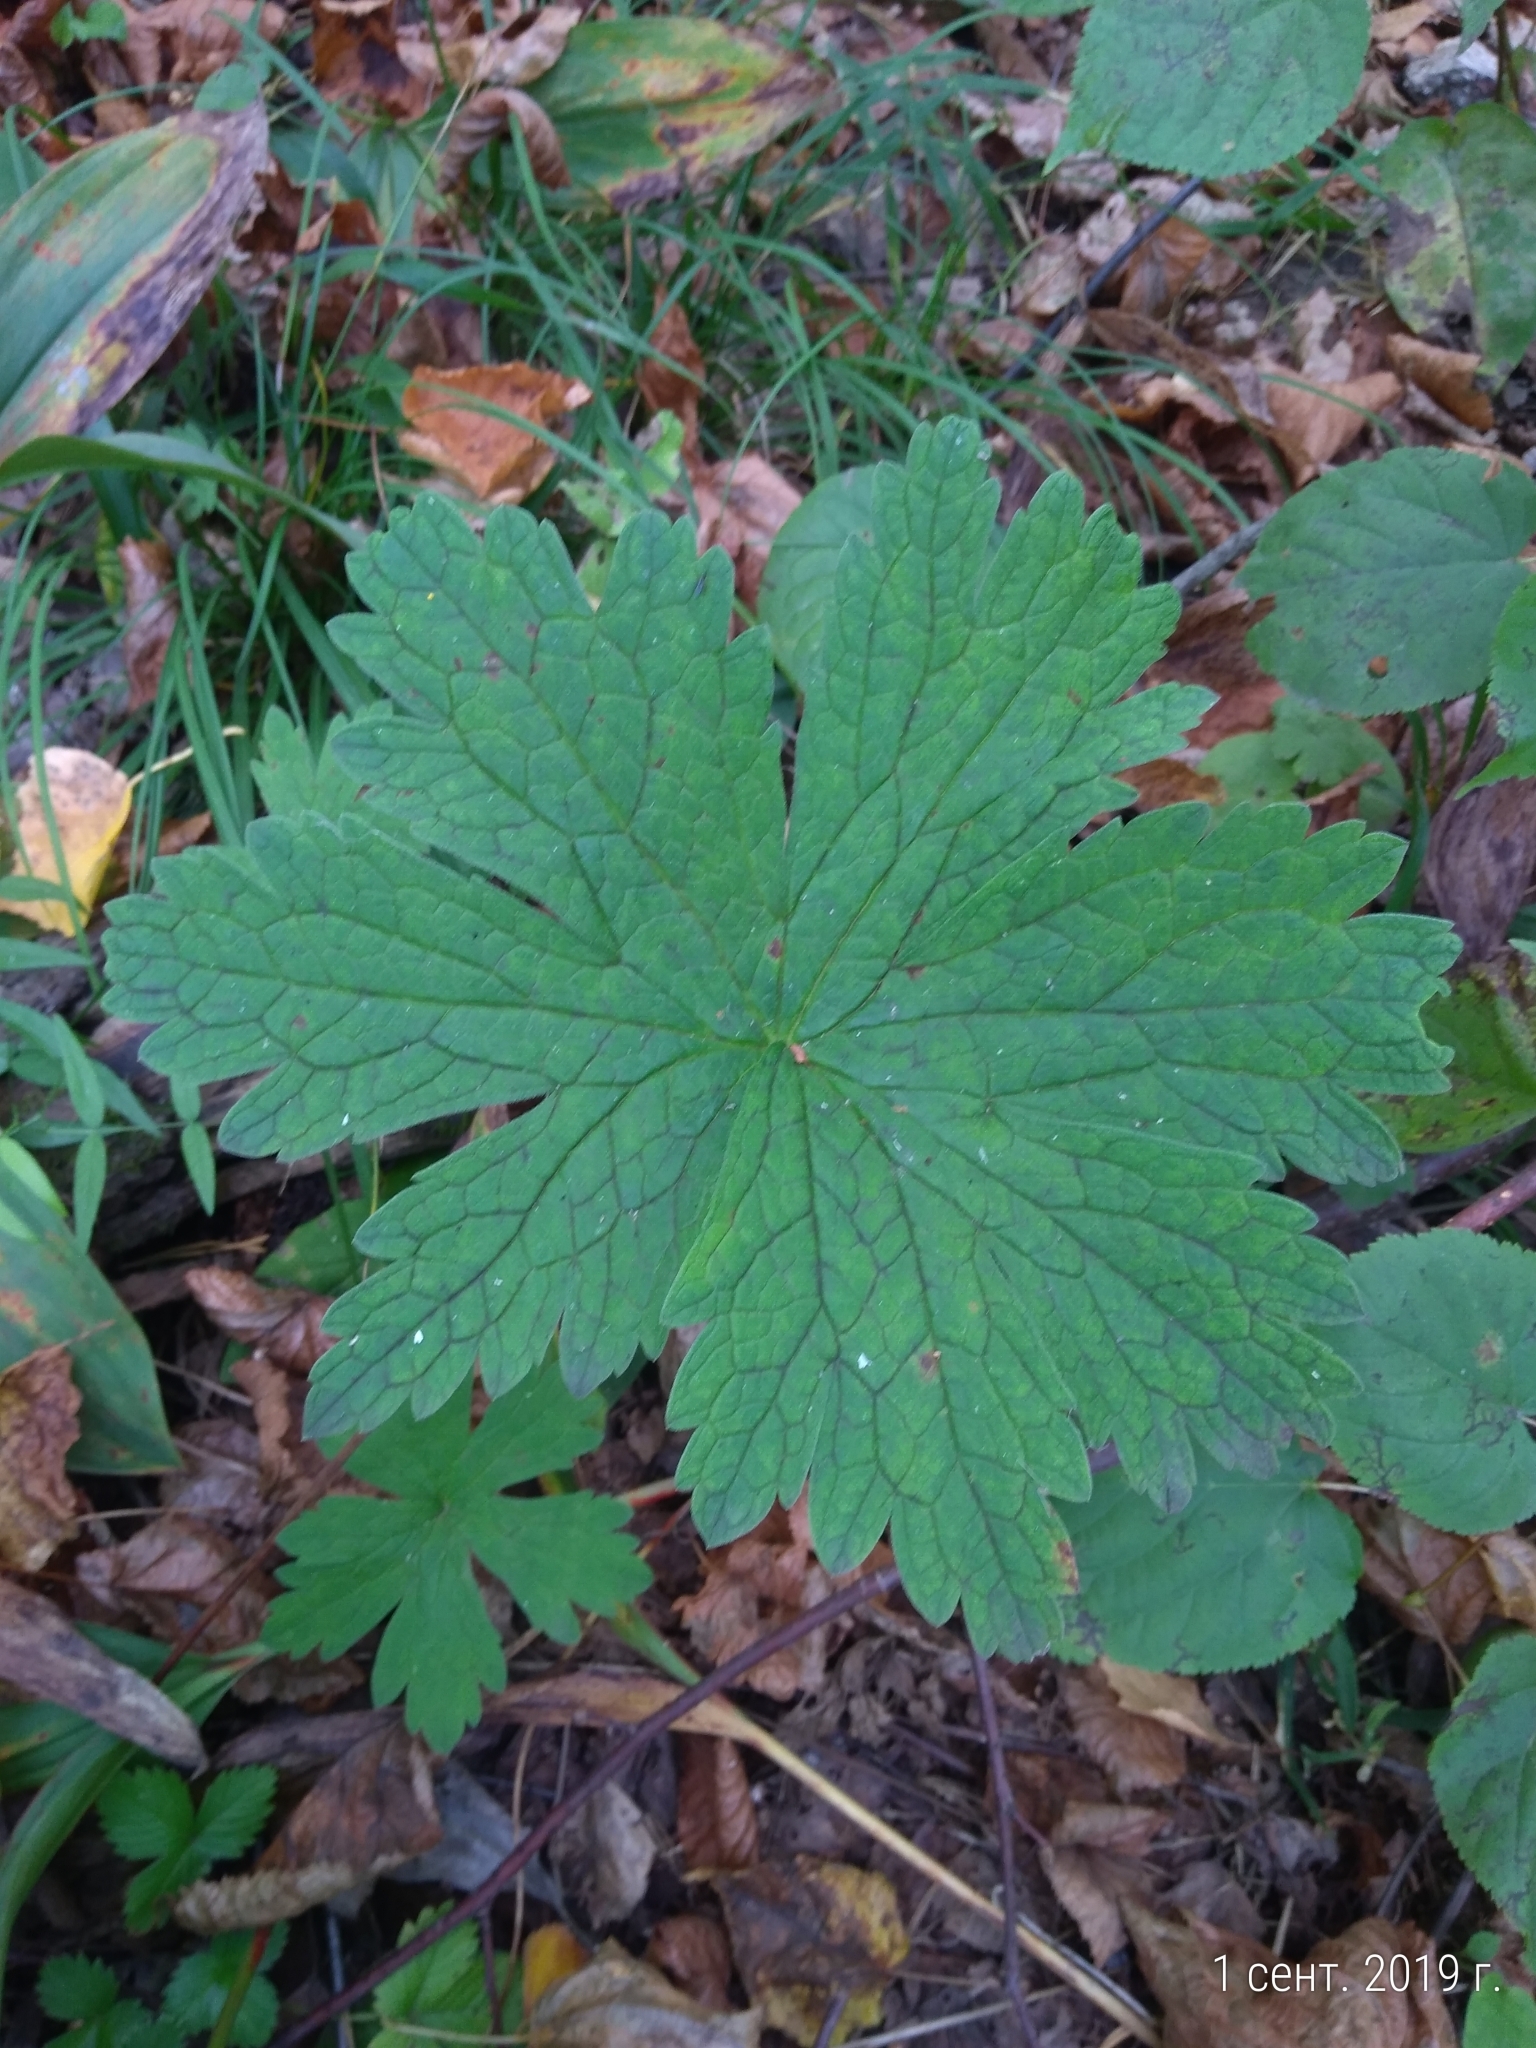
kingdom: Plantae
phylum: Tracheophyta
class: Magnoliopsida
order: Geraniales
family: Geraniaceae
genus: Geranium
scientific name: Geranium sylvaticum
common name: Wood crane's-bill
